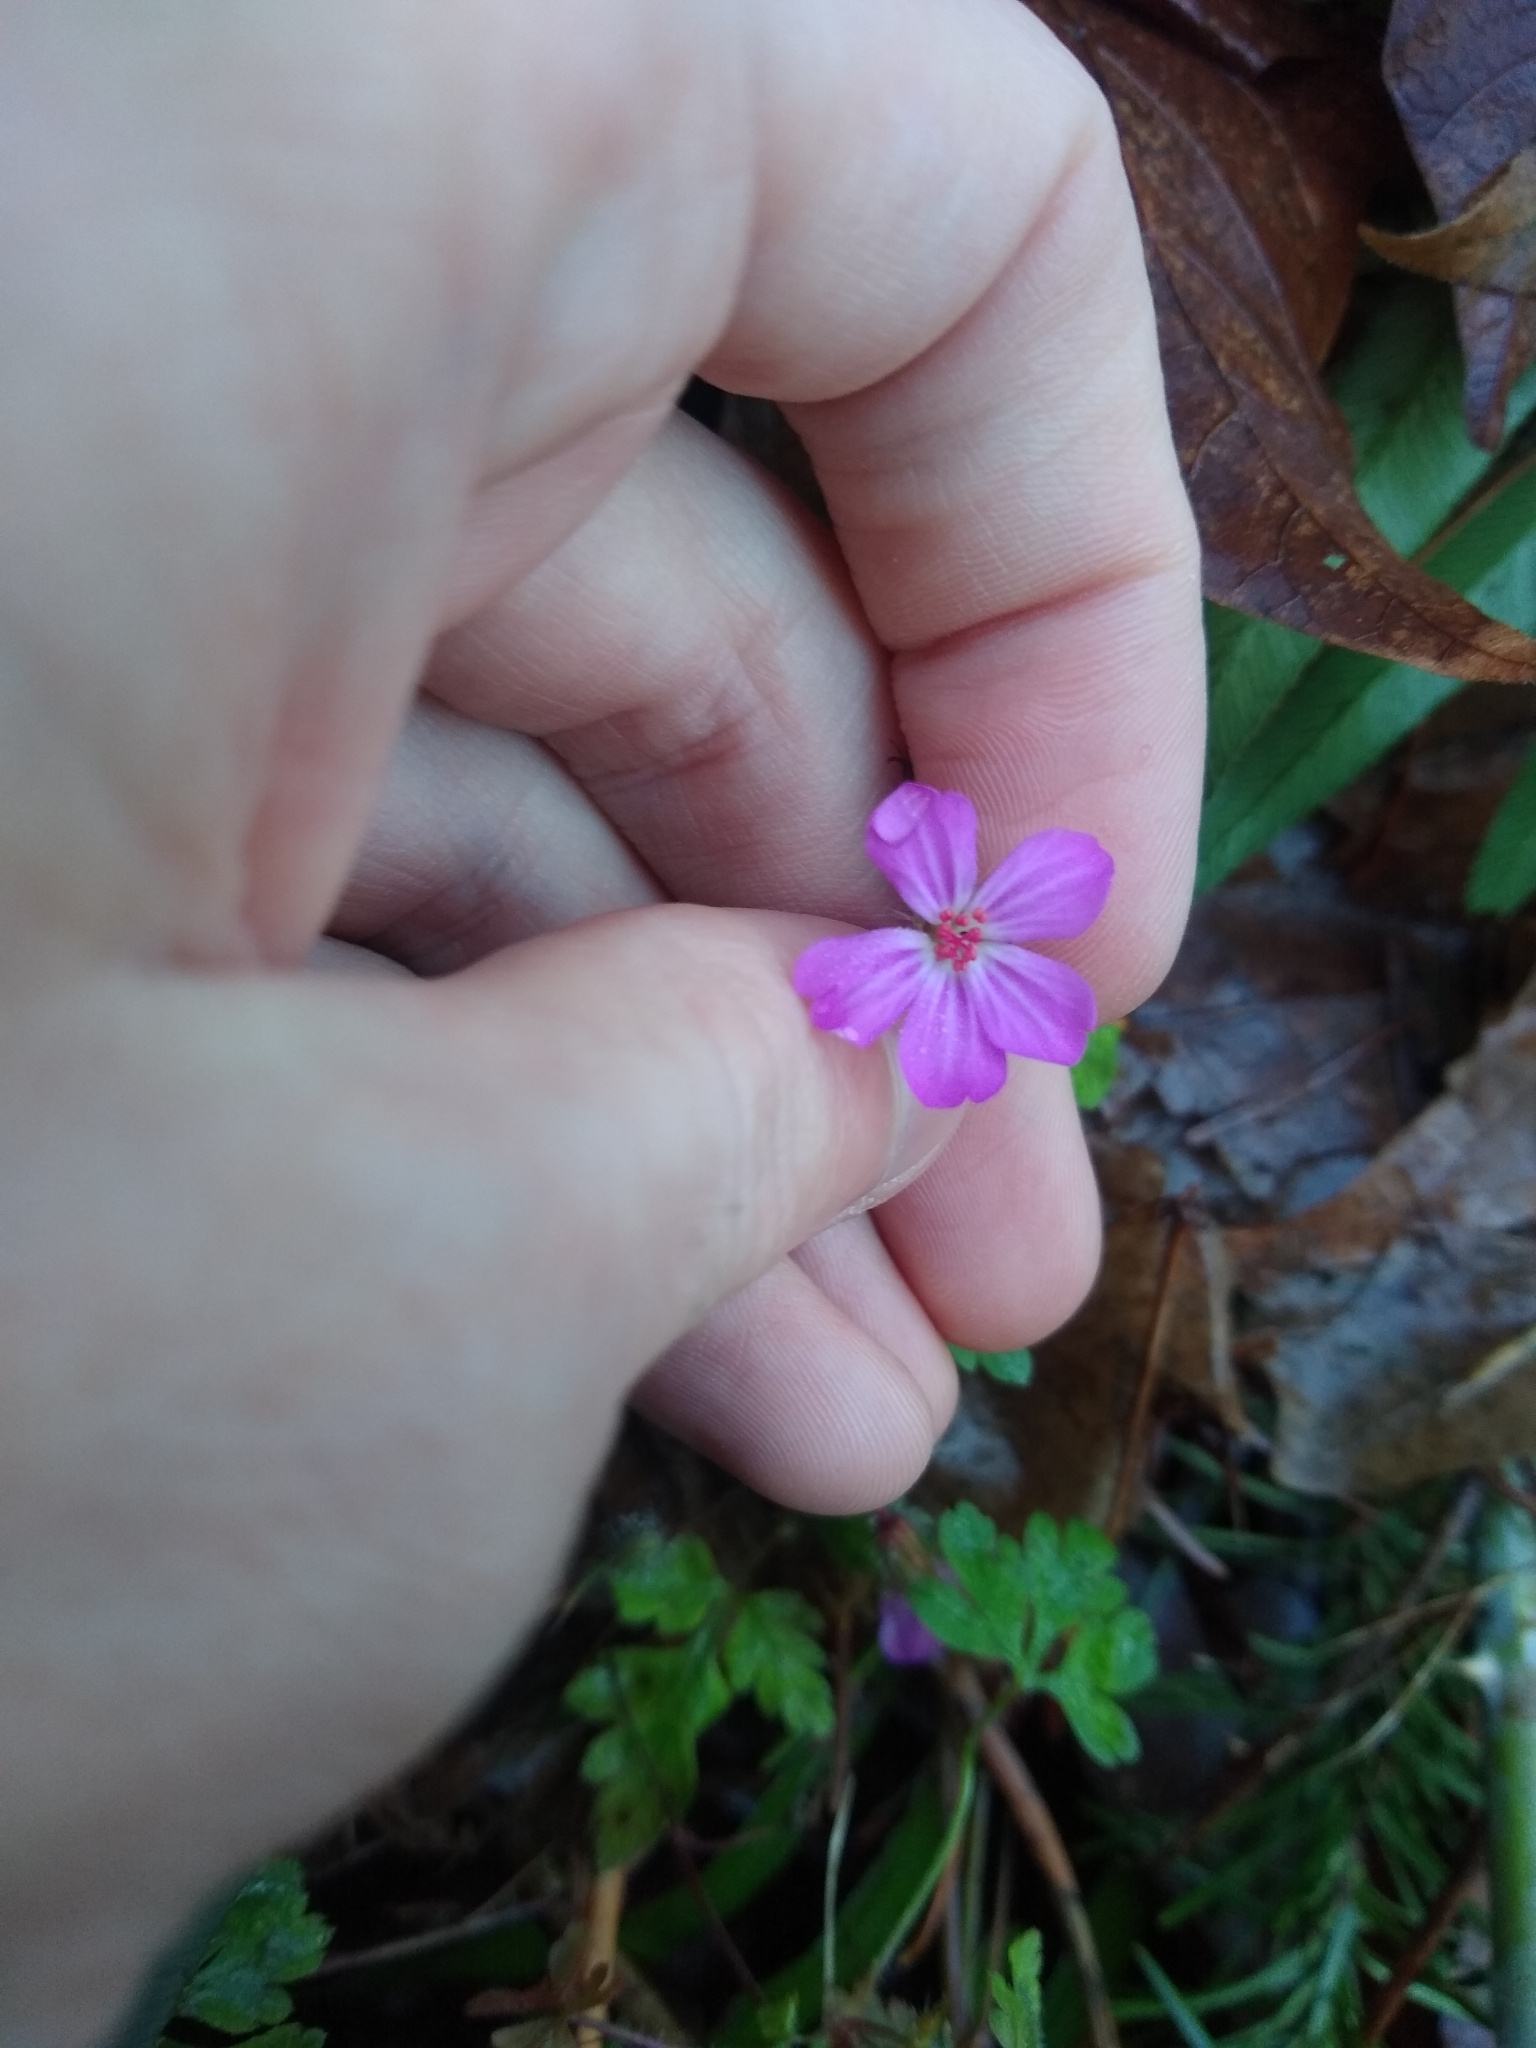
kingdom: Plantae
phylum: Tracheophyta
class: Magnoliopsida
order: Geraniales
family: Geraniaceae
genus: Geranium
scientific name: Geranium robertianum
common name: Herb-robert
